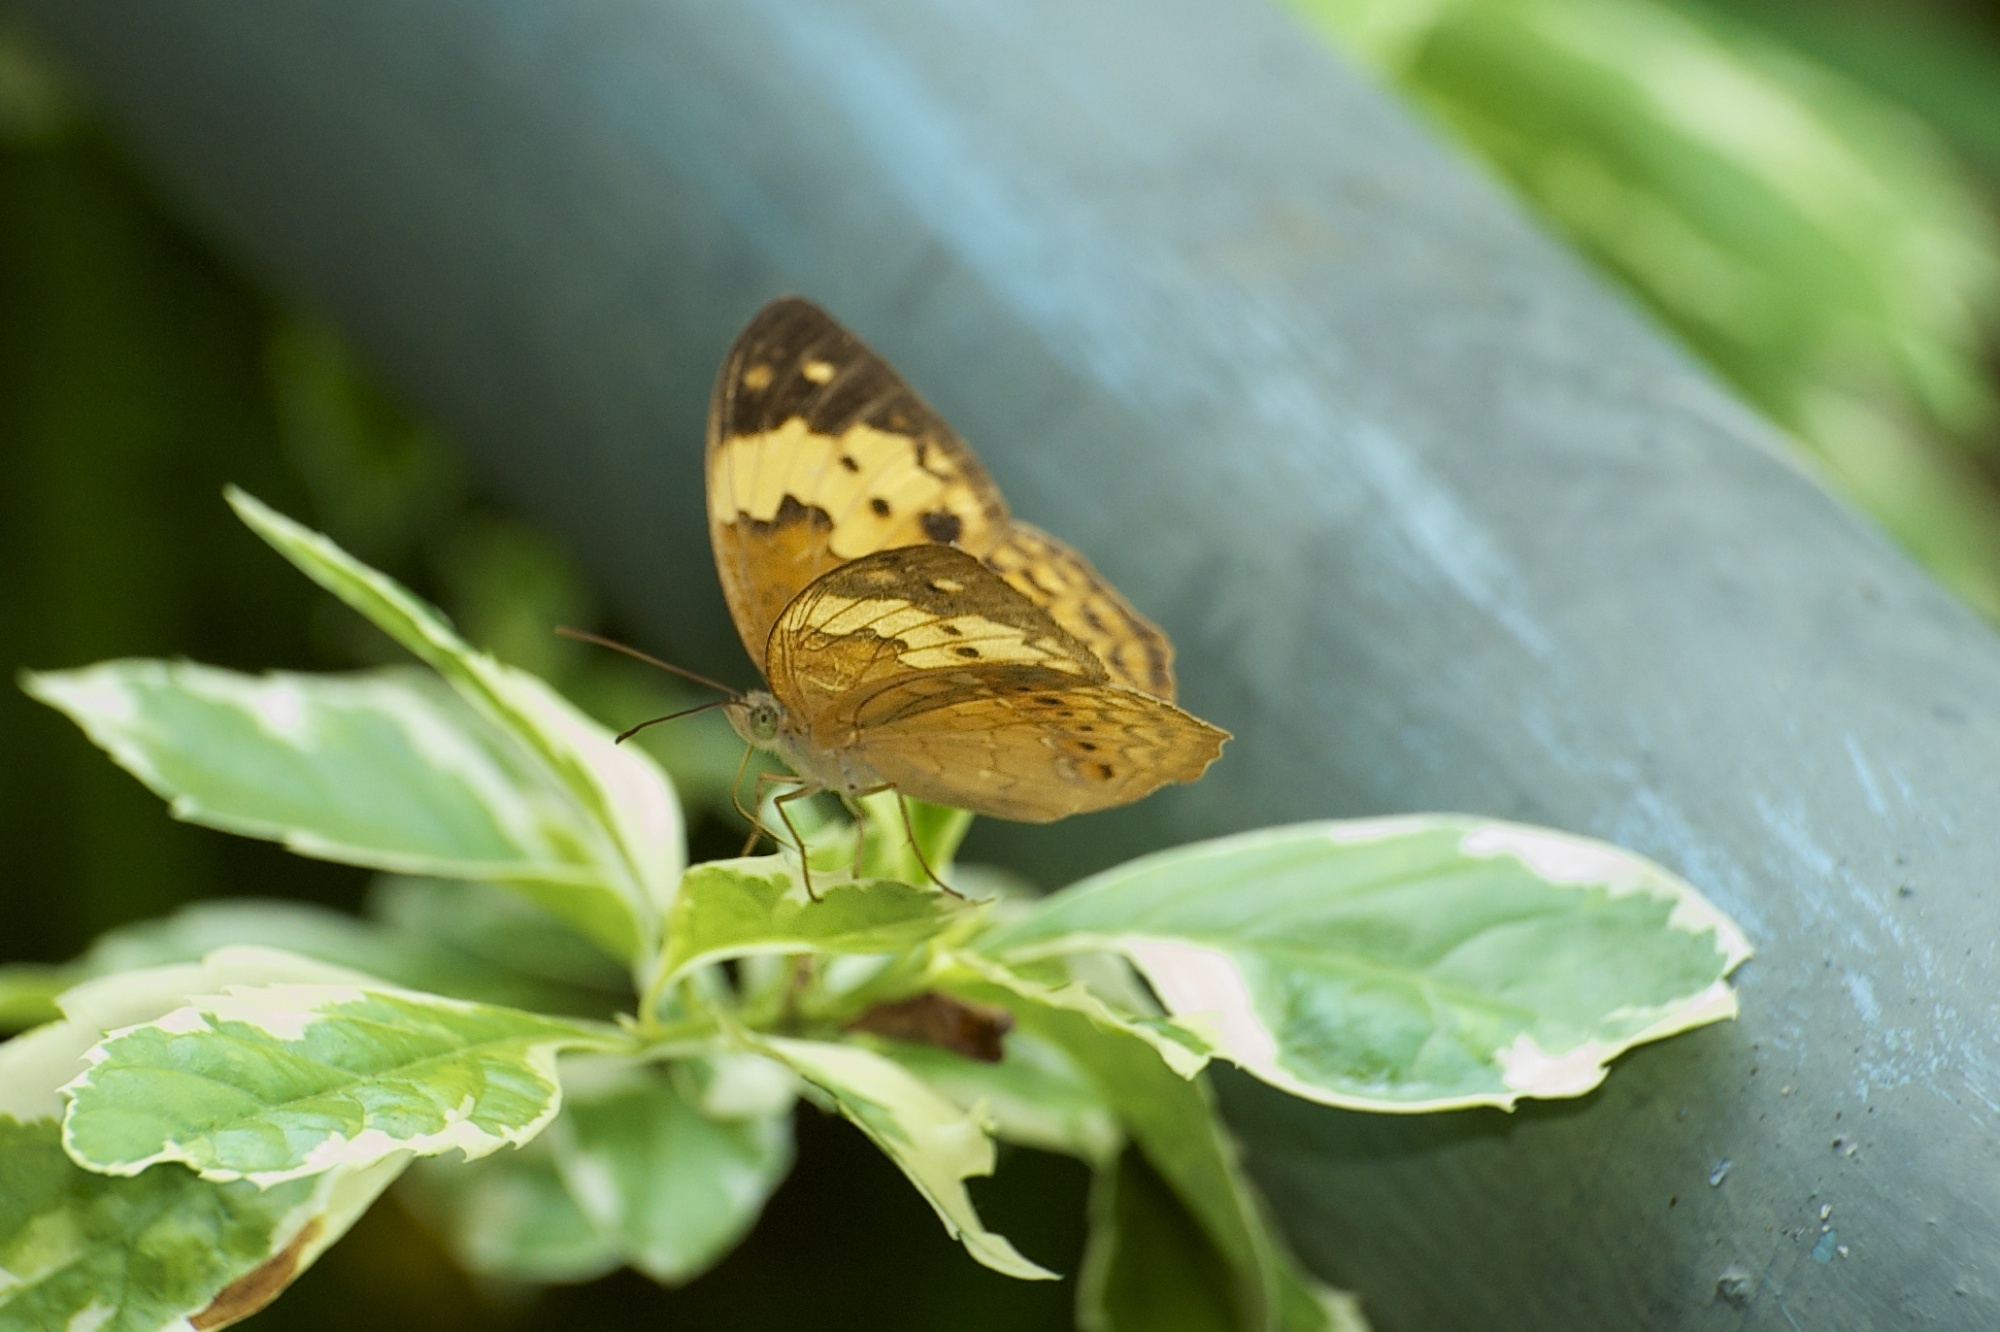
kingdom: Animalia
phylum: Arthropoda
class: Insecta
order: Lepidoptera
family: Nymphalidae
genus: Cupha
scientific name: Cupha erymanthis
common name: Rustic
